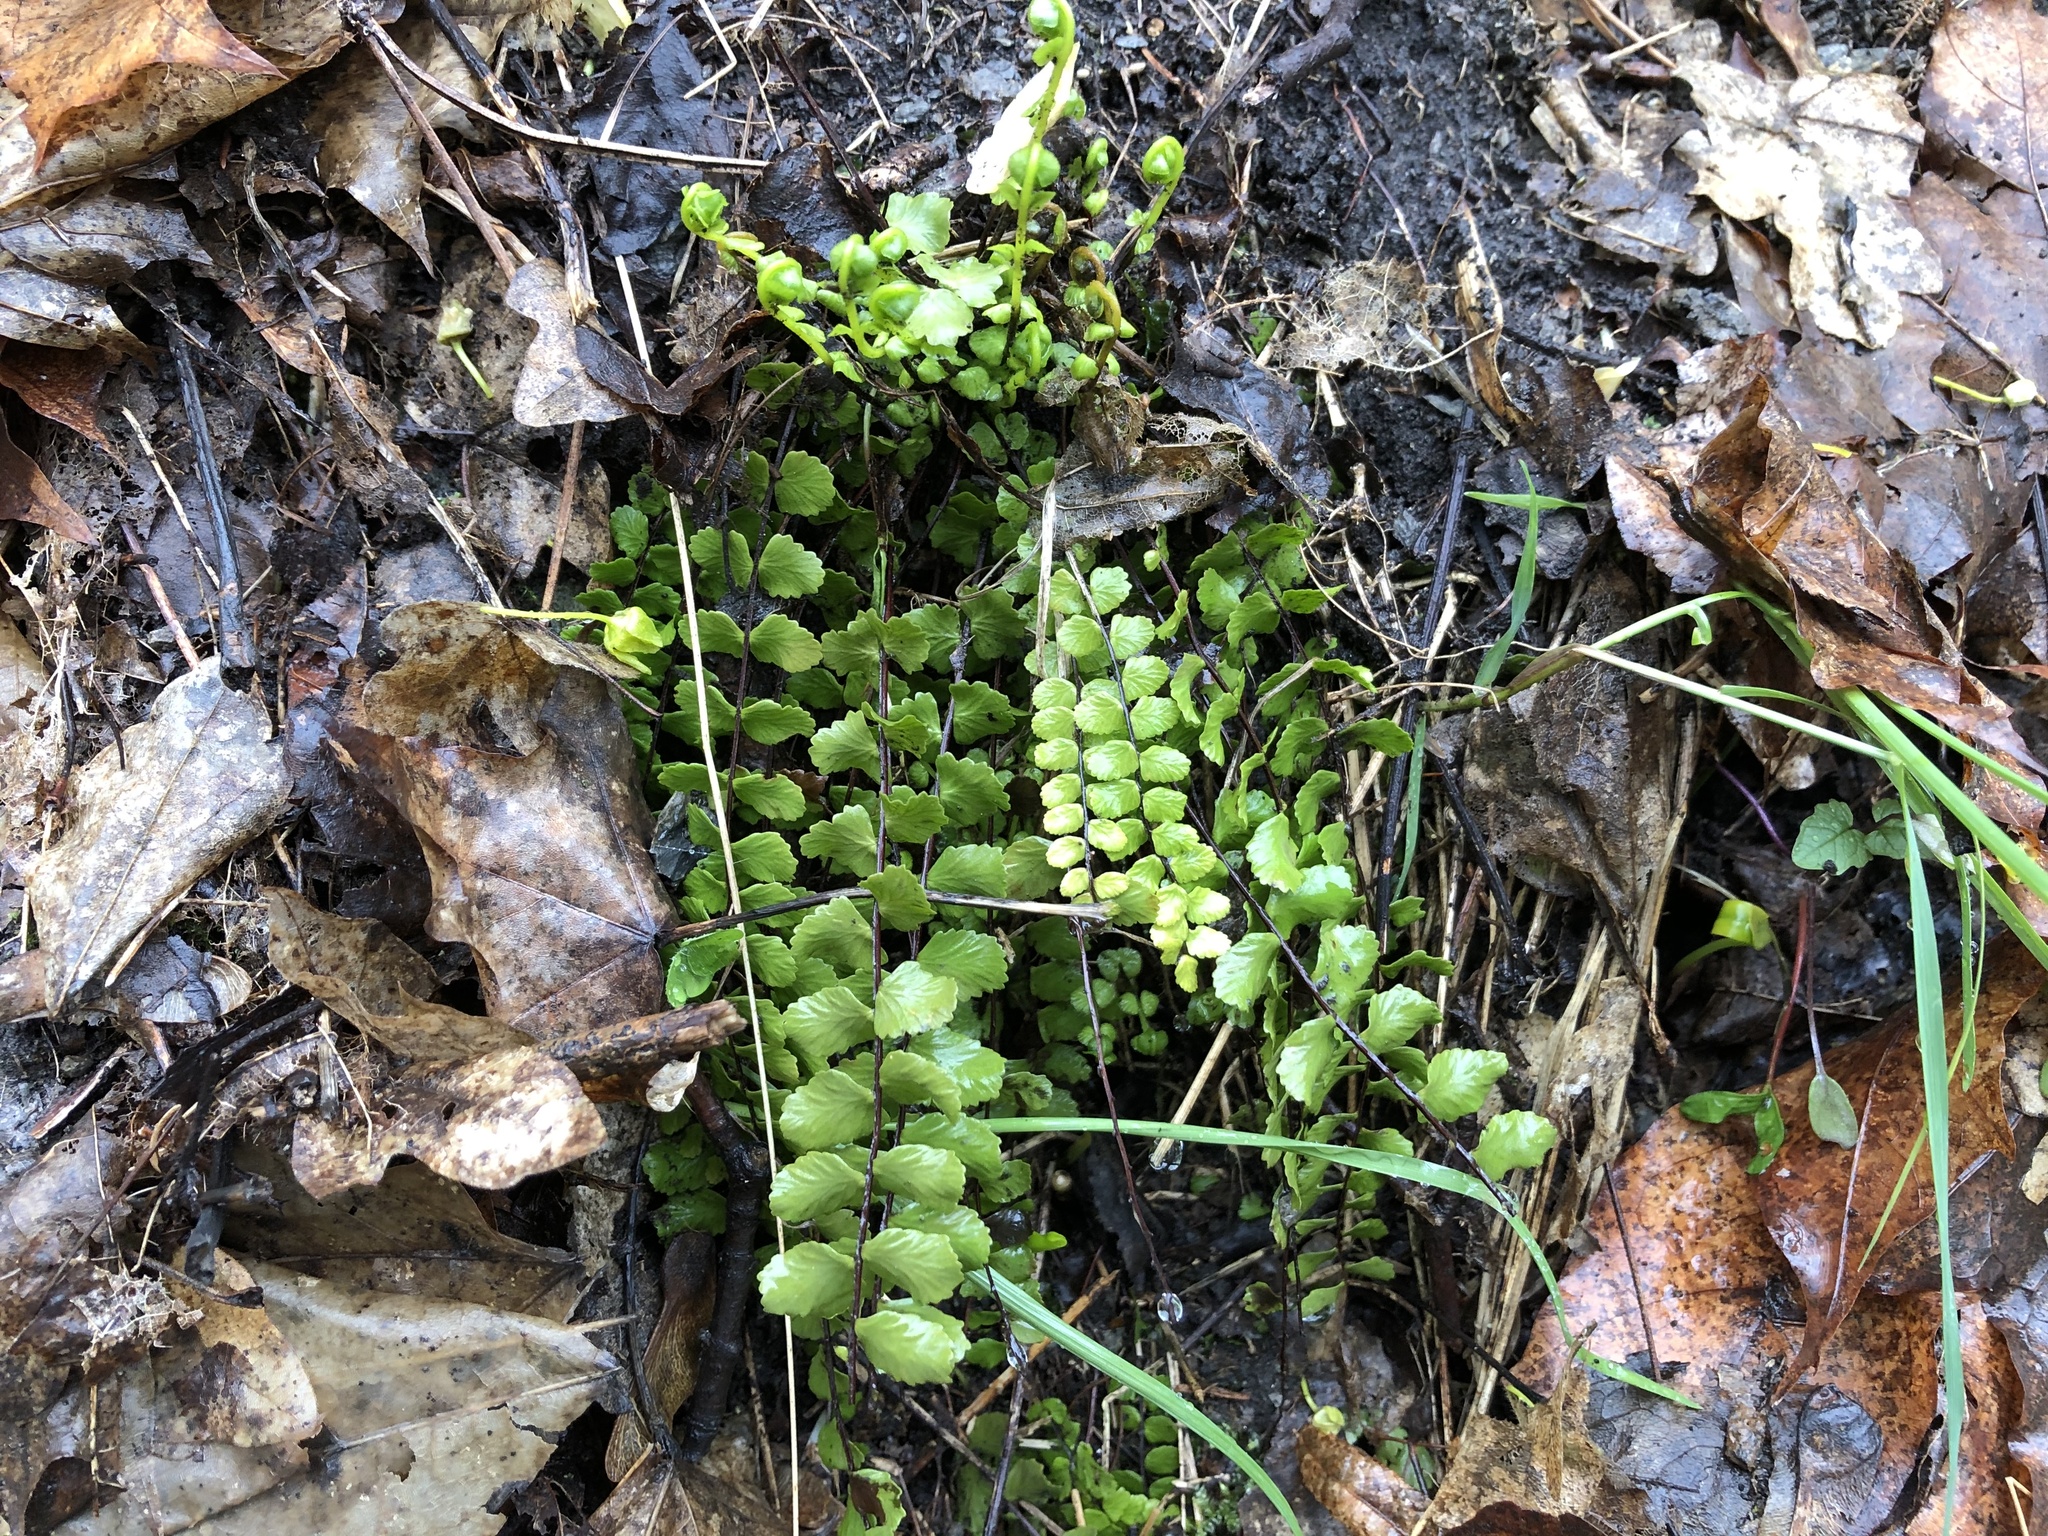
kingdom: Plantae
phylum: Tracheophyta
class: Polypodiopsida
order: Polypodiales
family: Aspleniaceae
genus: Asplenium
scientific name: Asplenium trichomanes
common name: Maidenhair spleenwort
